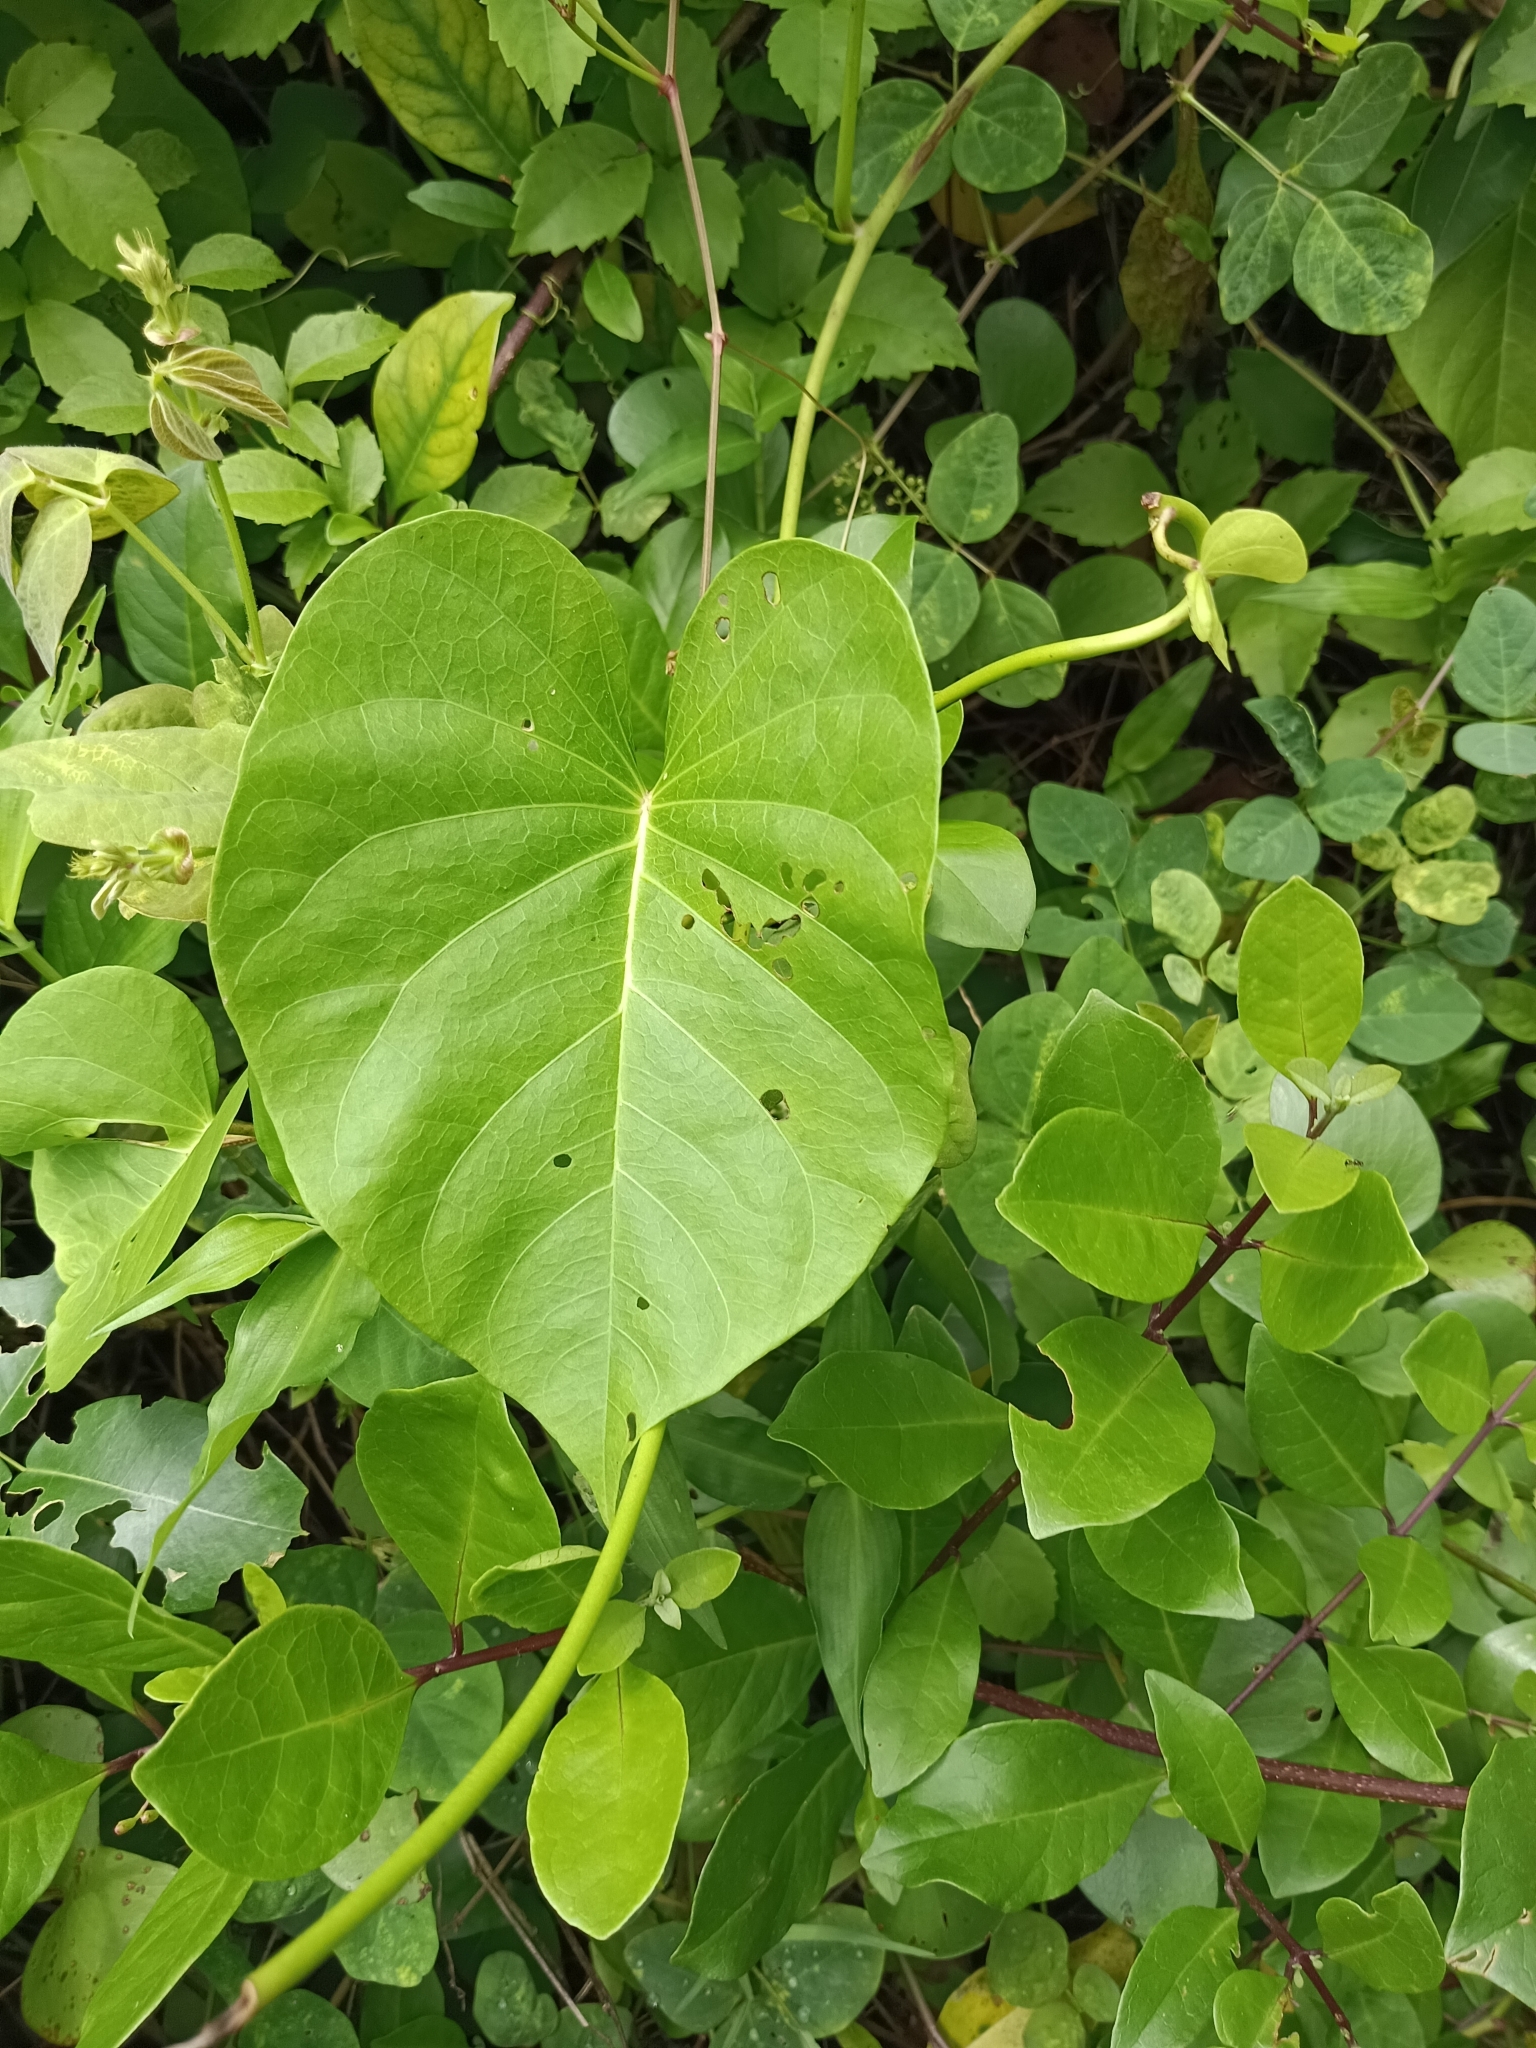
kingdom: Plantae
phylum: Tracheophyta
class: Magnoliopsida
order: Solanales
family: Convolvulaceae
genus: Ipomoea
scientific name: Ipomoea violacea
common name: Beach moonflower
